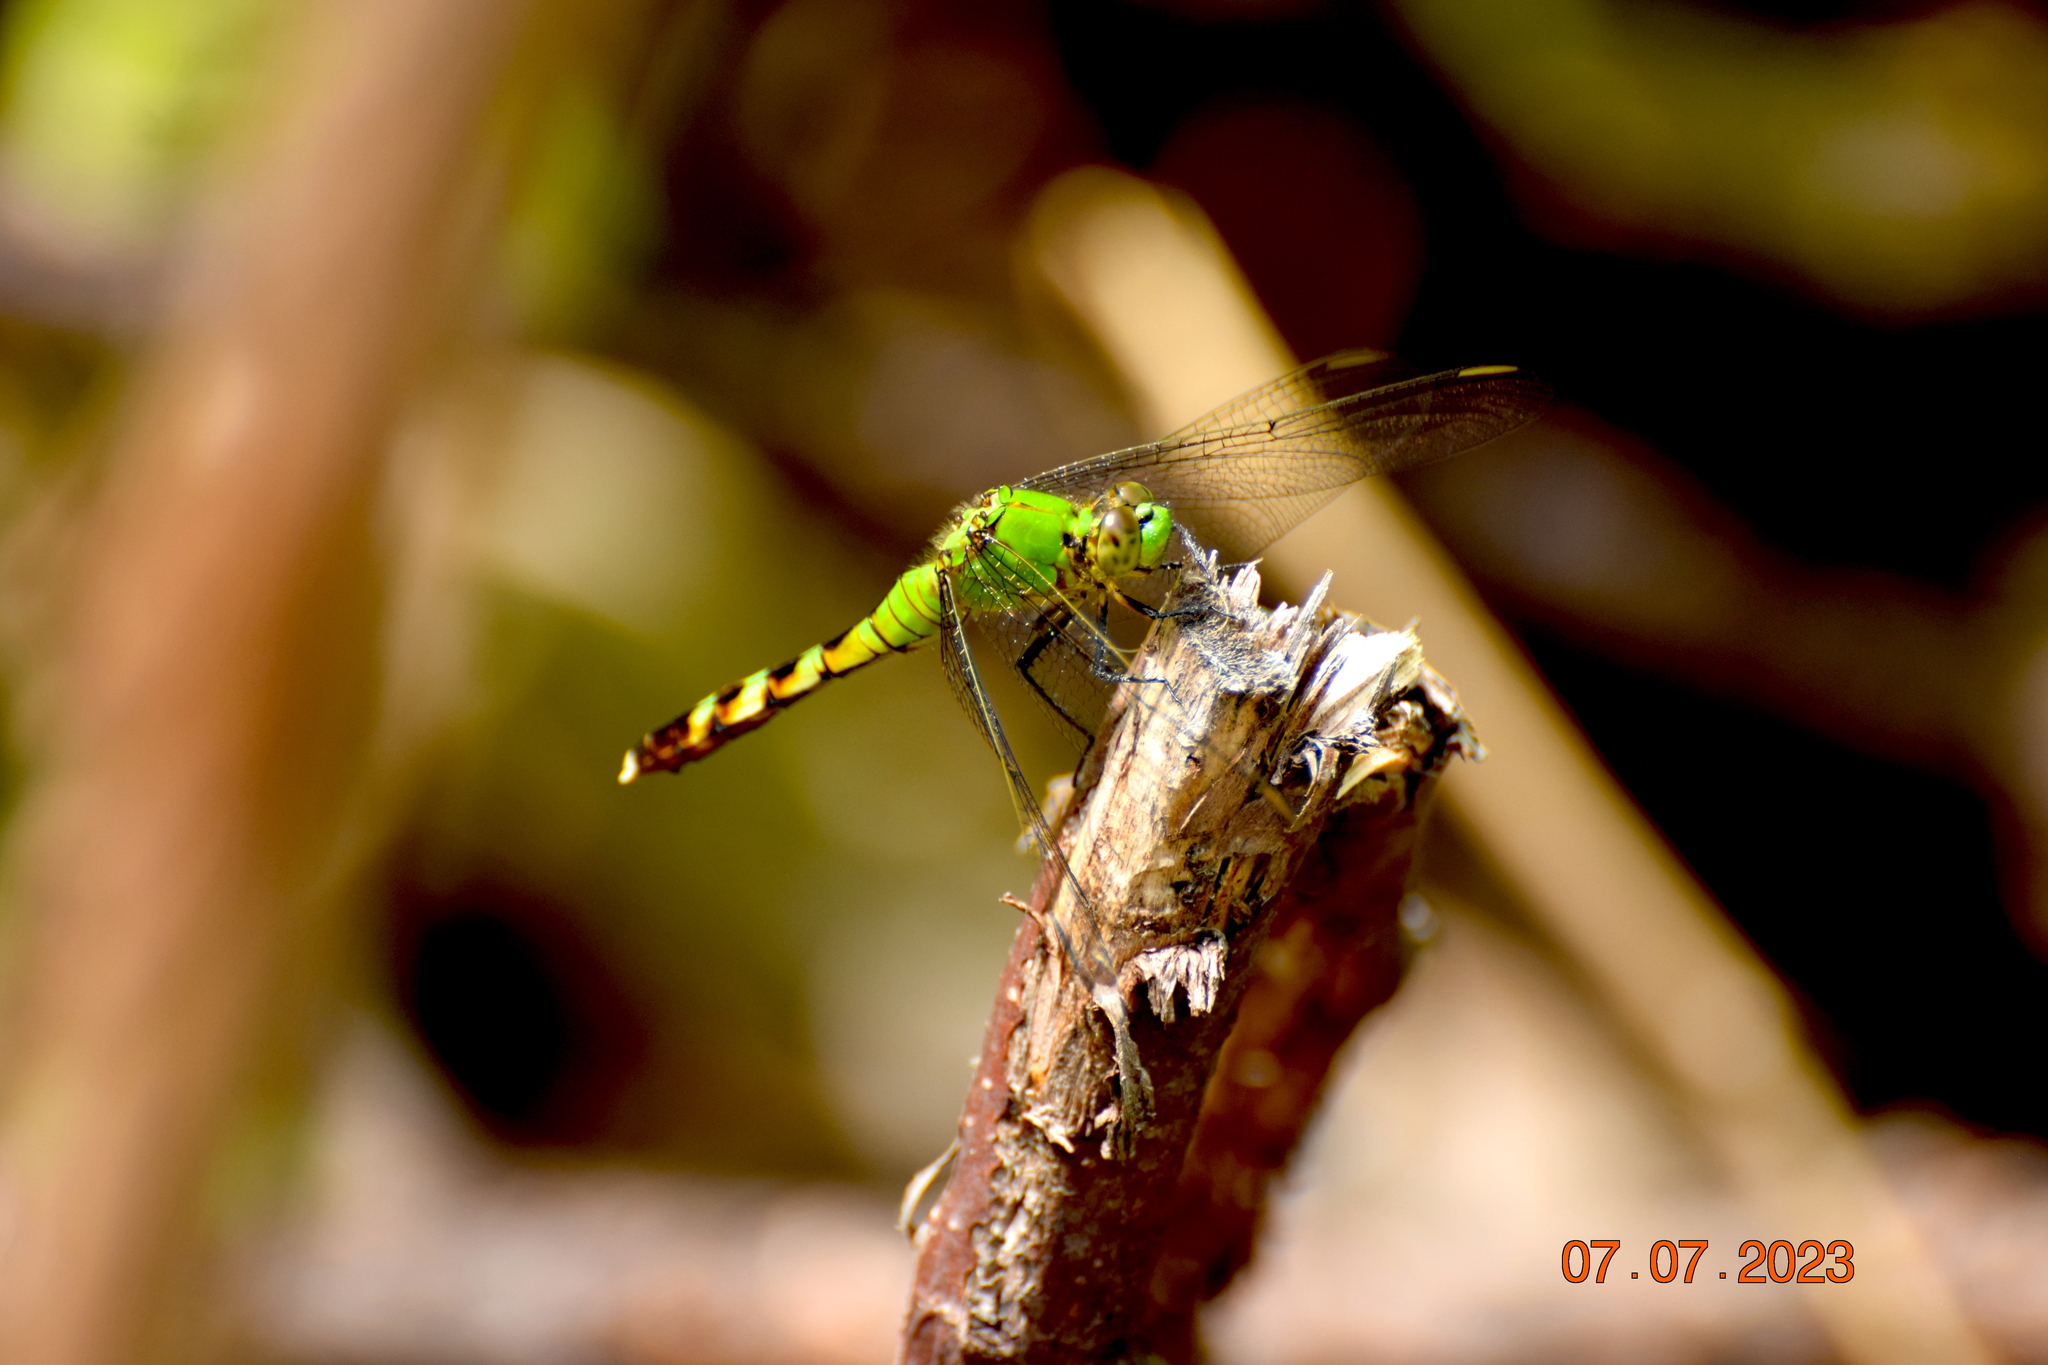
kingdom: Animalia
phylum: Arthropoda
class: Insecta
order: Odonata
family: Libellulidae
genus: Erythemis
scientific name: Erythemis simplicicollis
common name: Eastern pondhawk
